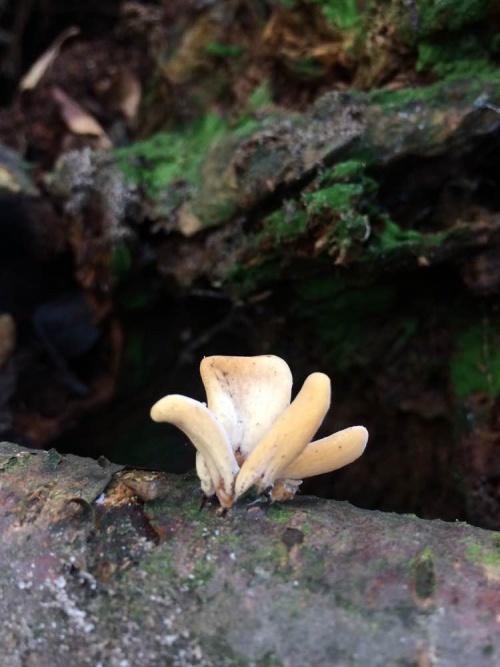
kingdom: Fungi
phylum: Basidiomycota
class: Agaricomycetes
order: Agaricales
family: Typhulaceae
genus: Typhula
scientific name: Typhula contorta
